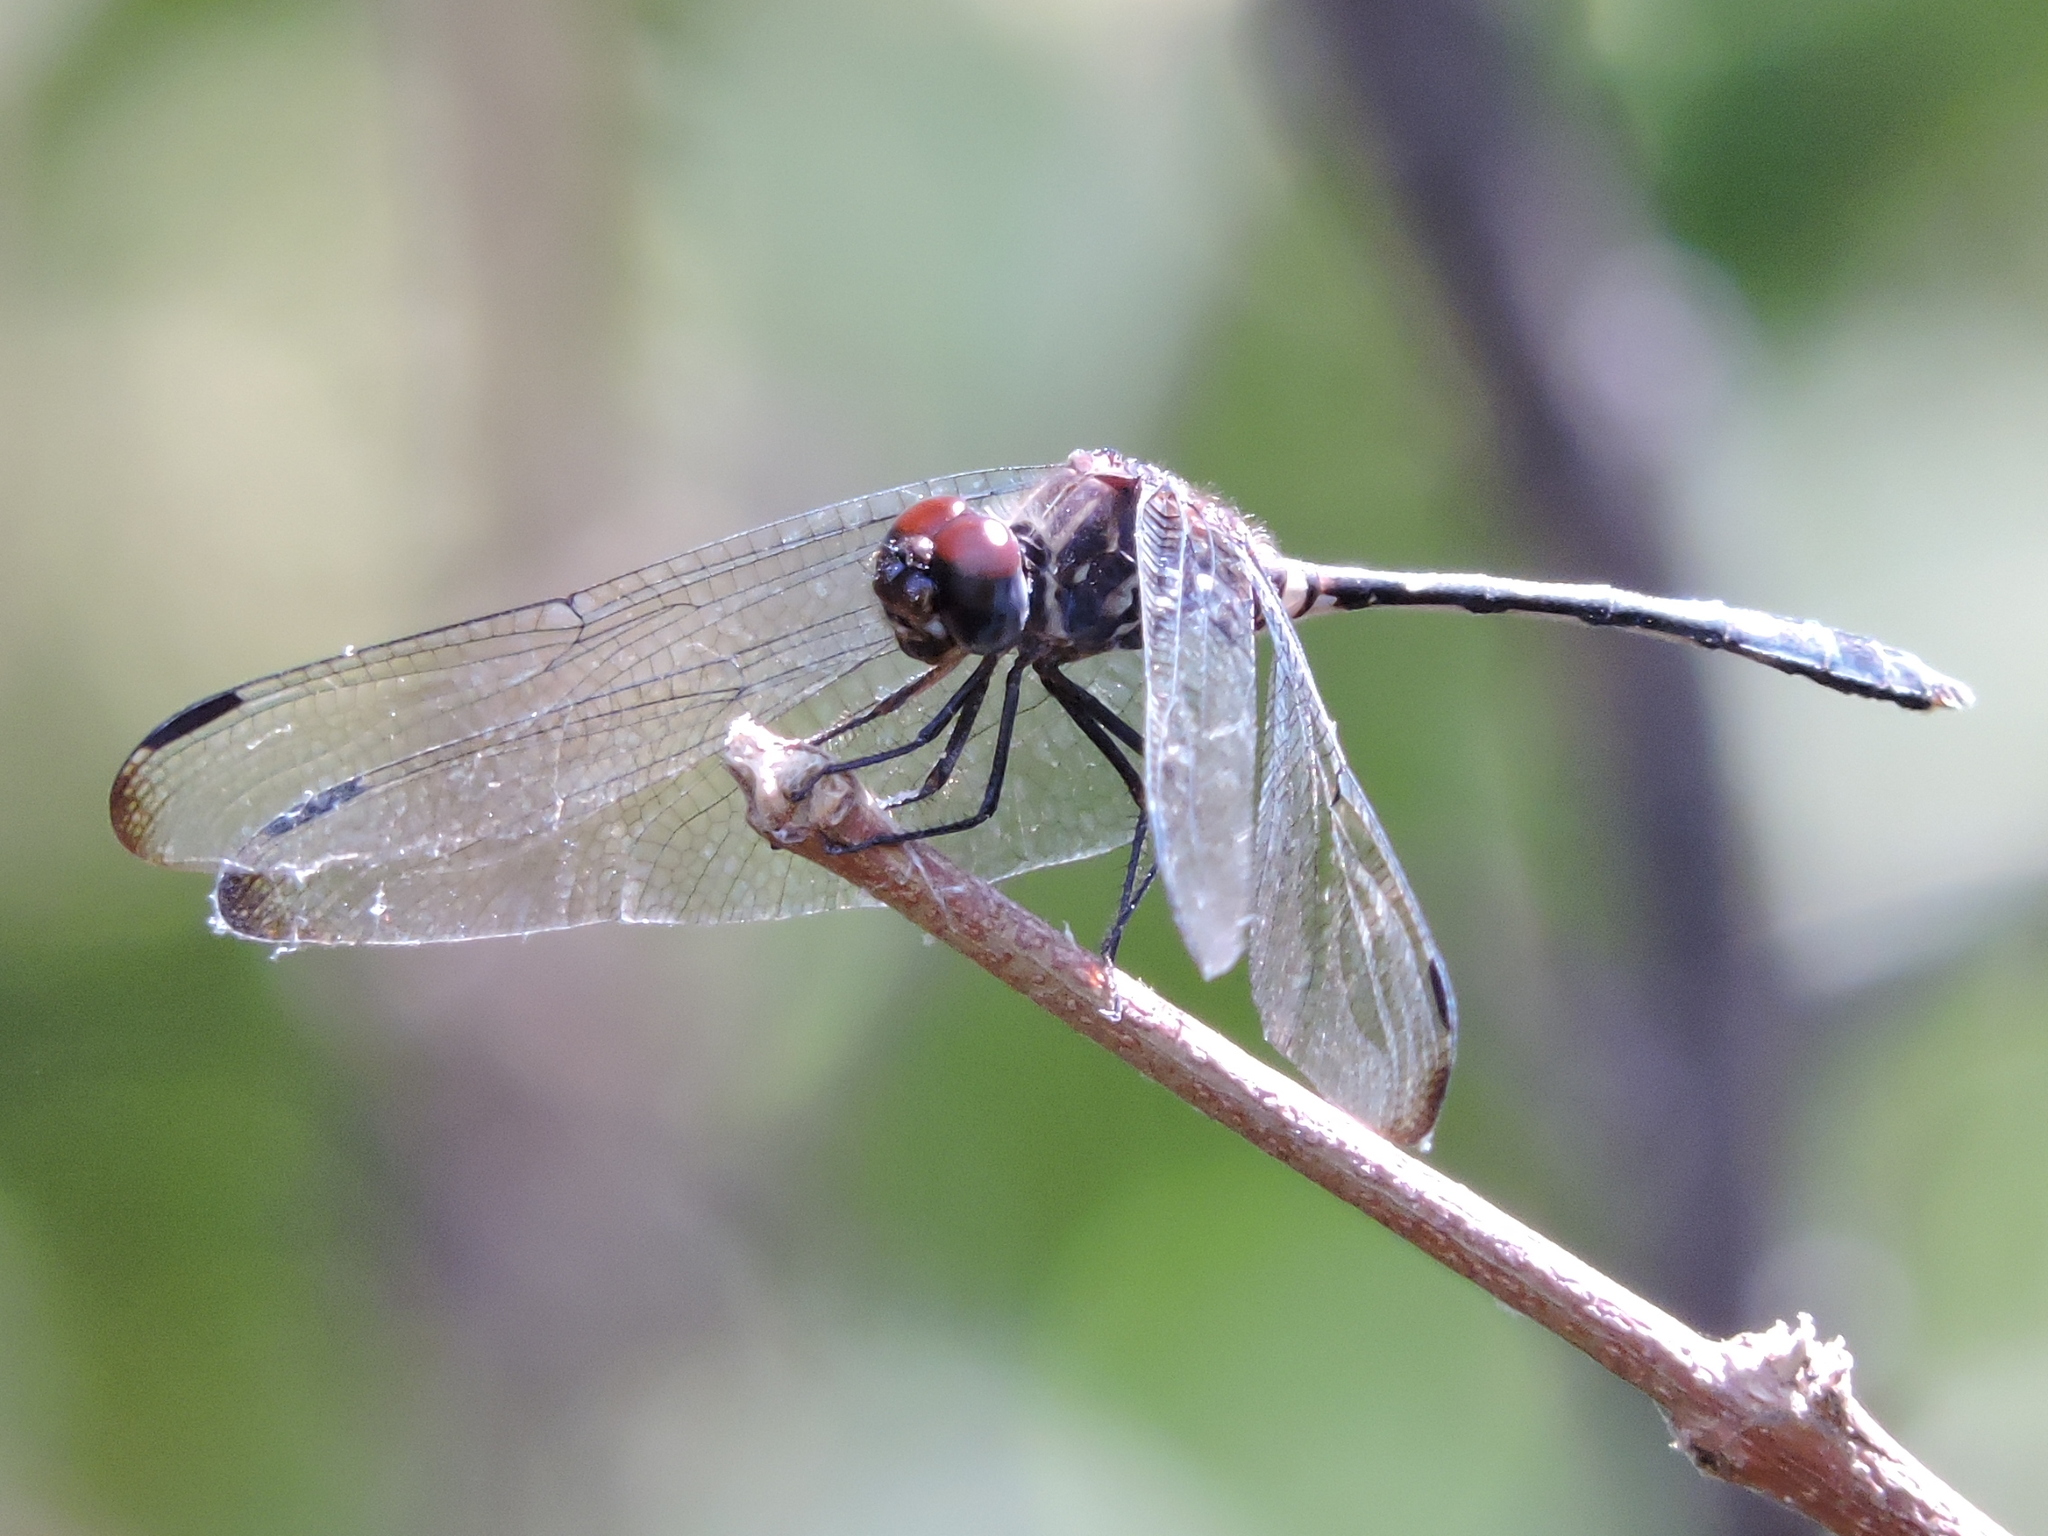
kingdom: Animalia
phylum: Arthropoda
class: Insecta
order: Odonata
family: Libellulidae
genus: Dythemis
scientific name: Dythemis velox
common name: Swift setwing
